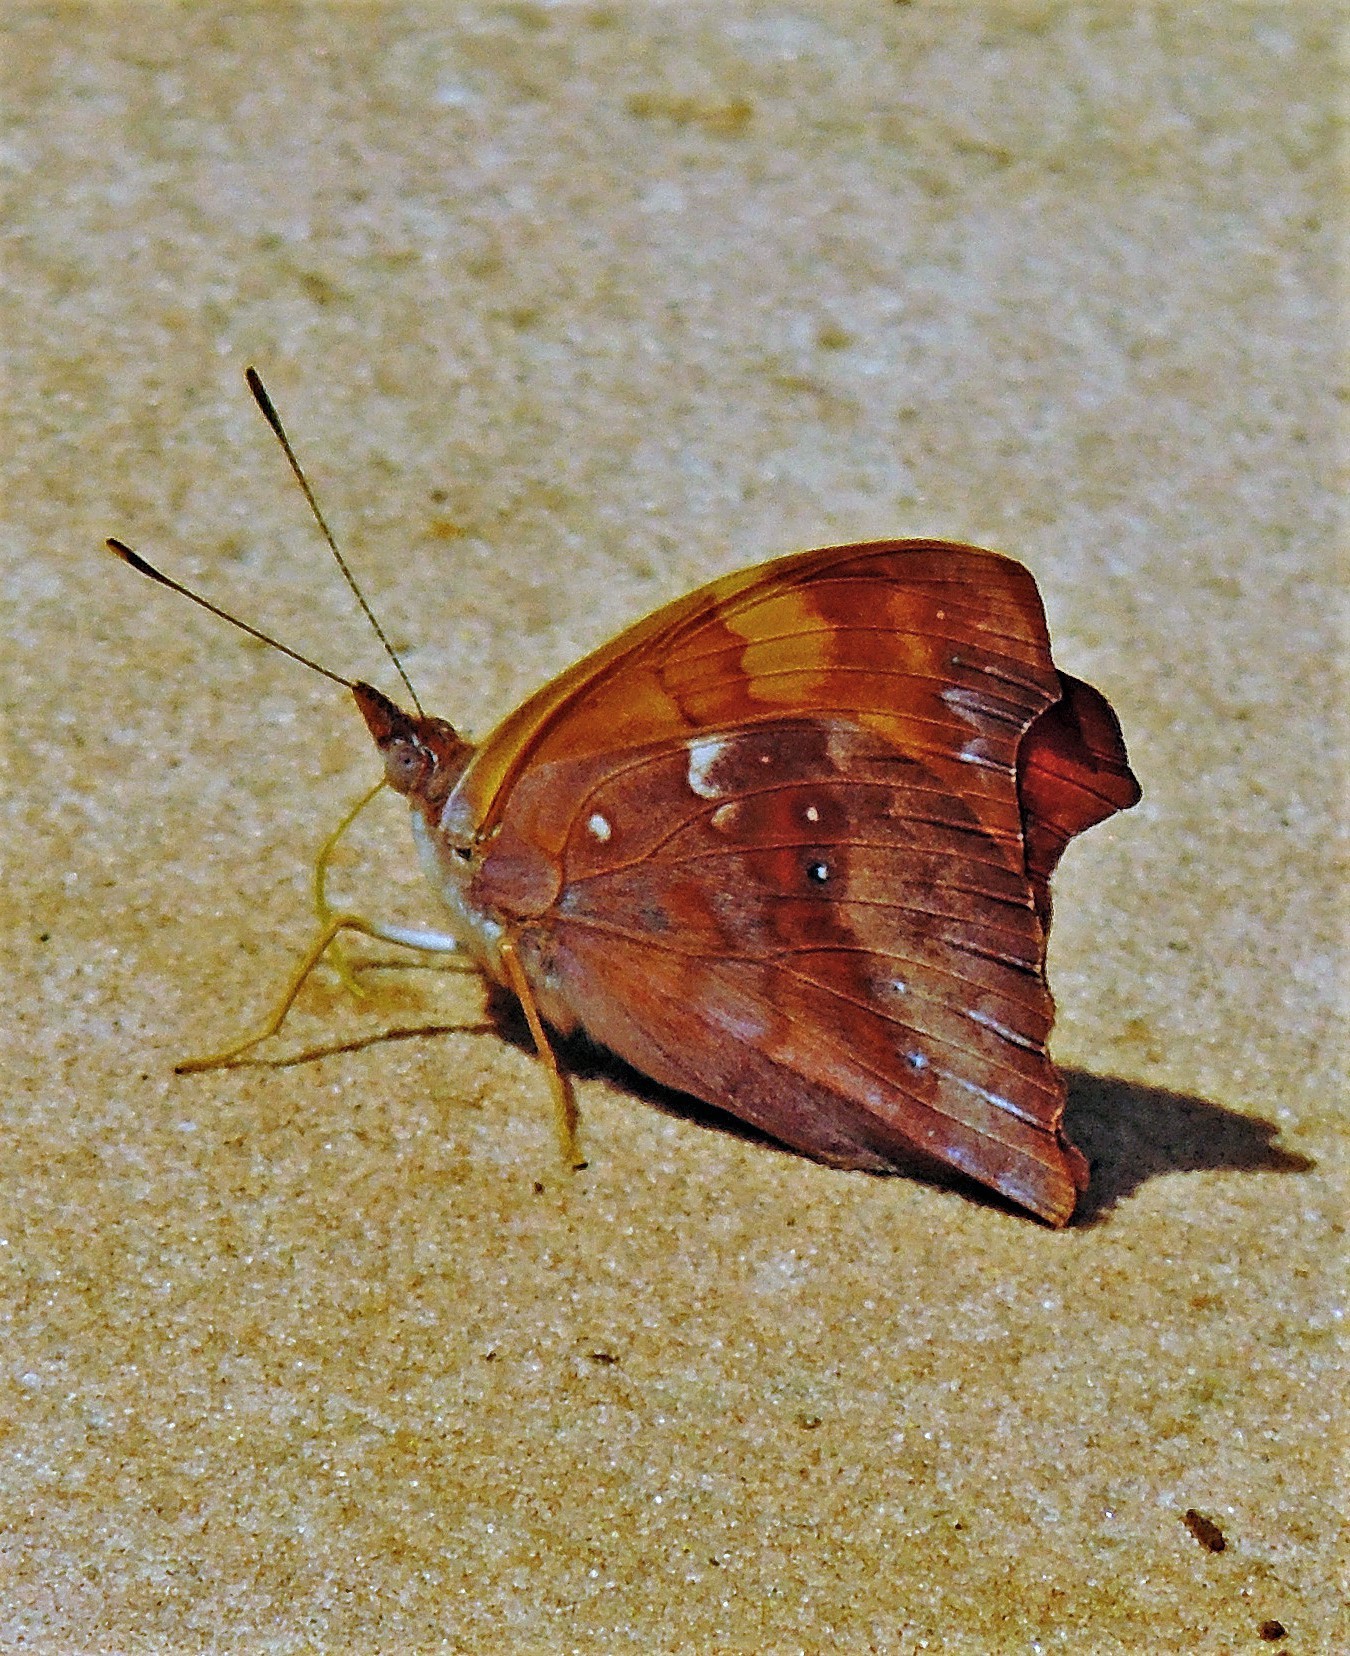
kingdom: Animalia
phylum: Arthropoda
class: Insecta
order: Lepidoptera
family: Nymphalidae
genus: Temenis
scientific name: Temenis laothoe
